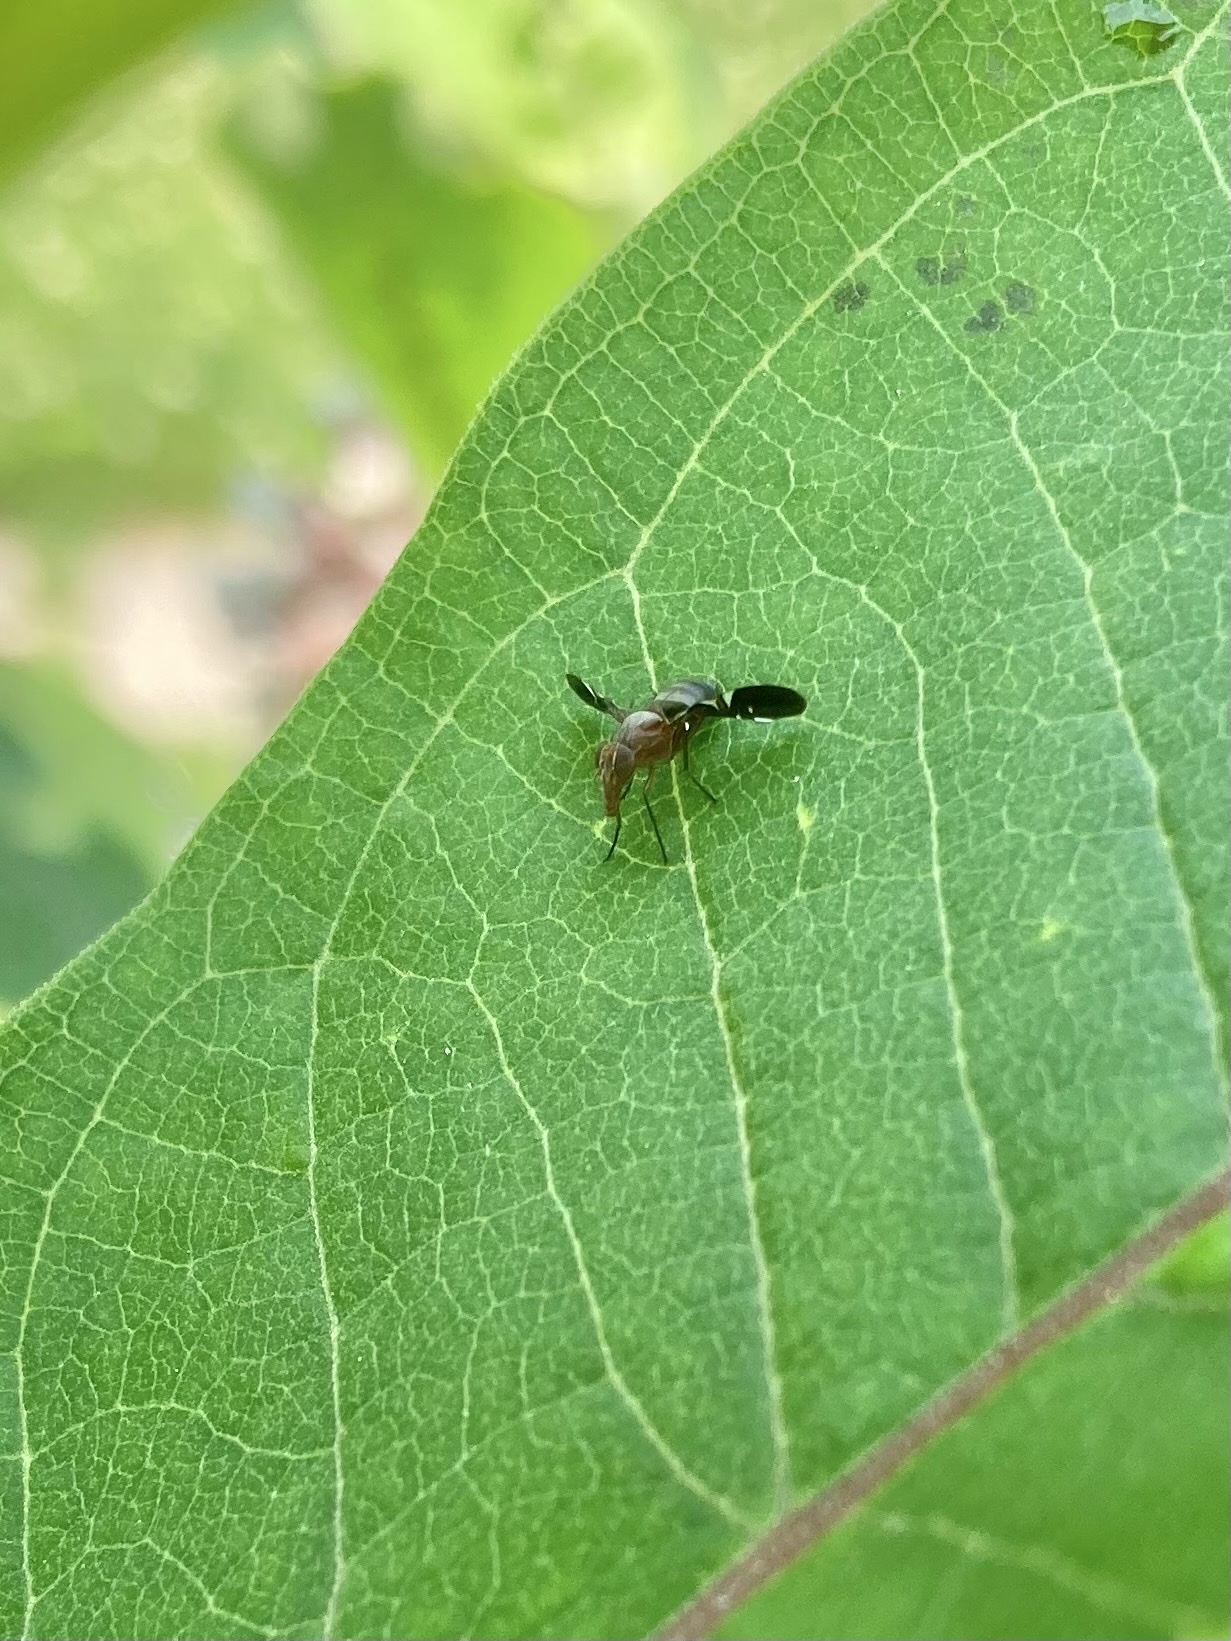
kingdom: Animalia
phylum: Arthropoda
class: Insecta
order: Diptera
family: Ulidiidae
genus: Delphinia
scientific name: Delphinia picta
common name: Common picture-winged fly
